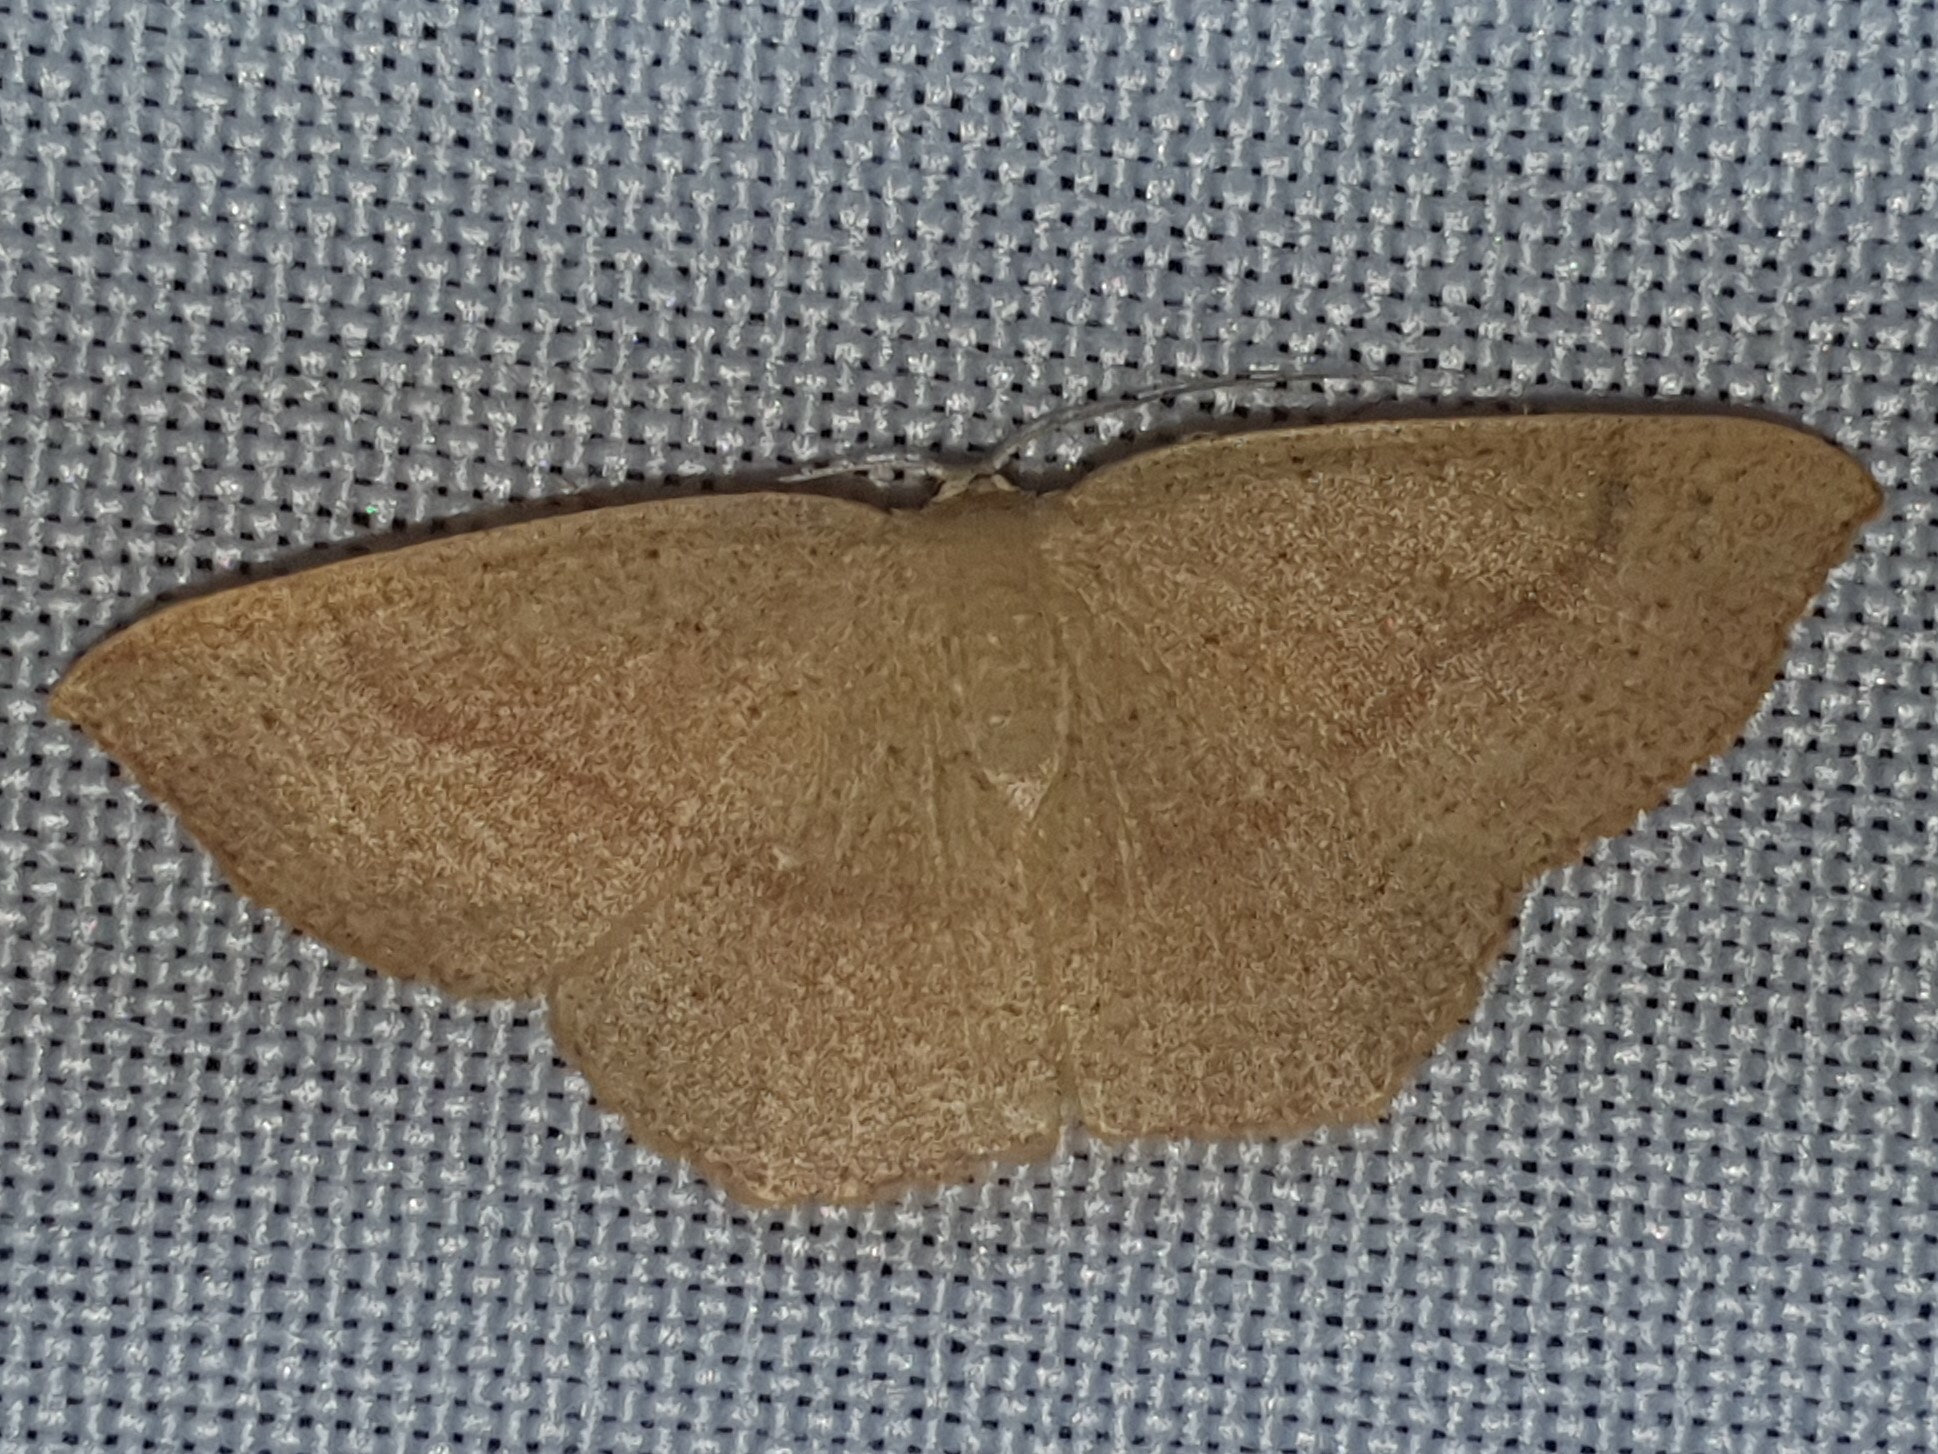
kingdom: Animalia
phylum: Arthropoda
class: Insecta
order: Lepidoptera
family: Geometridae
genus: Cyclophora
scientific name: Cyclophora linearia
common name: Clay triple-lines
